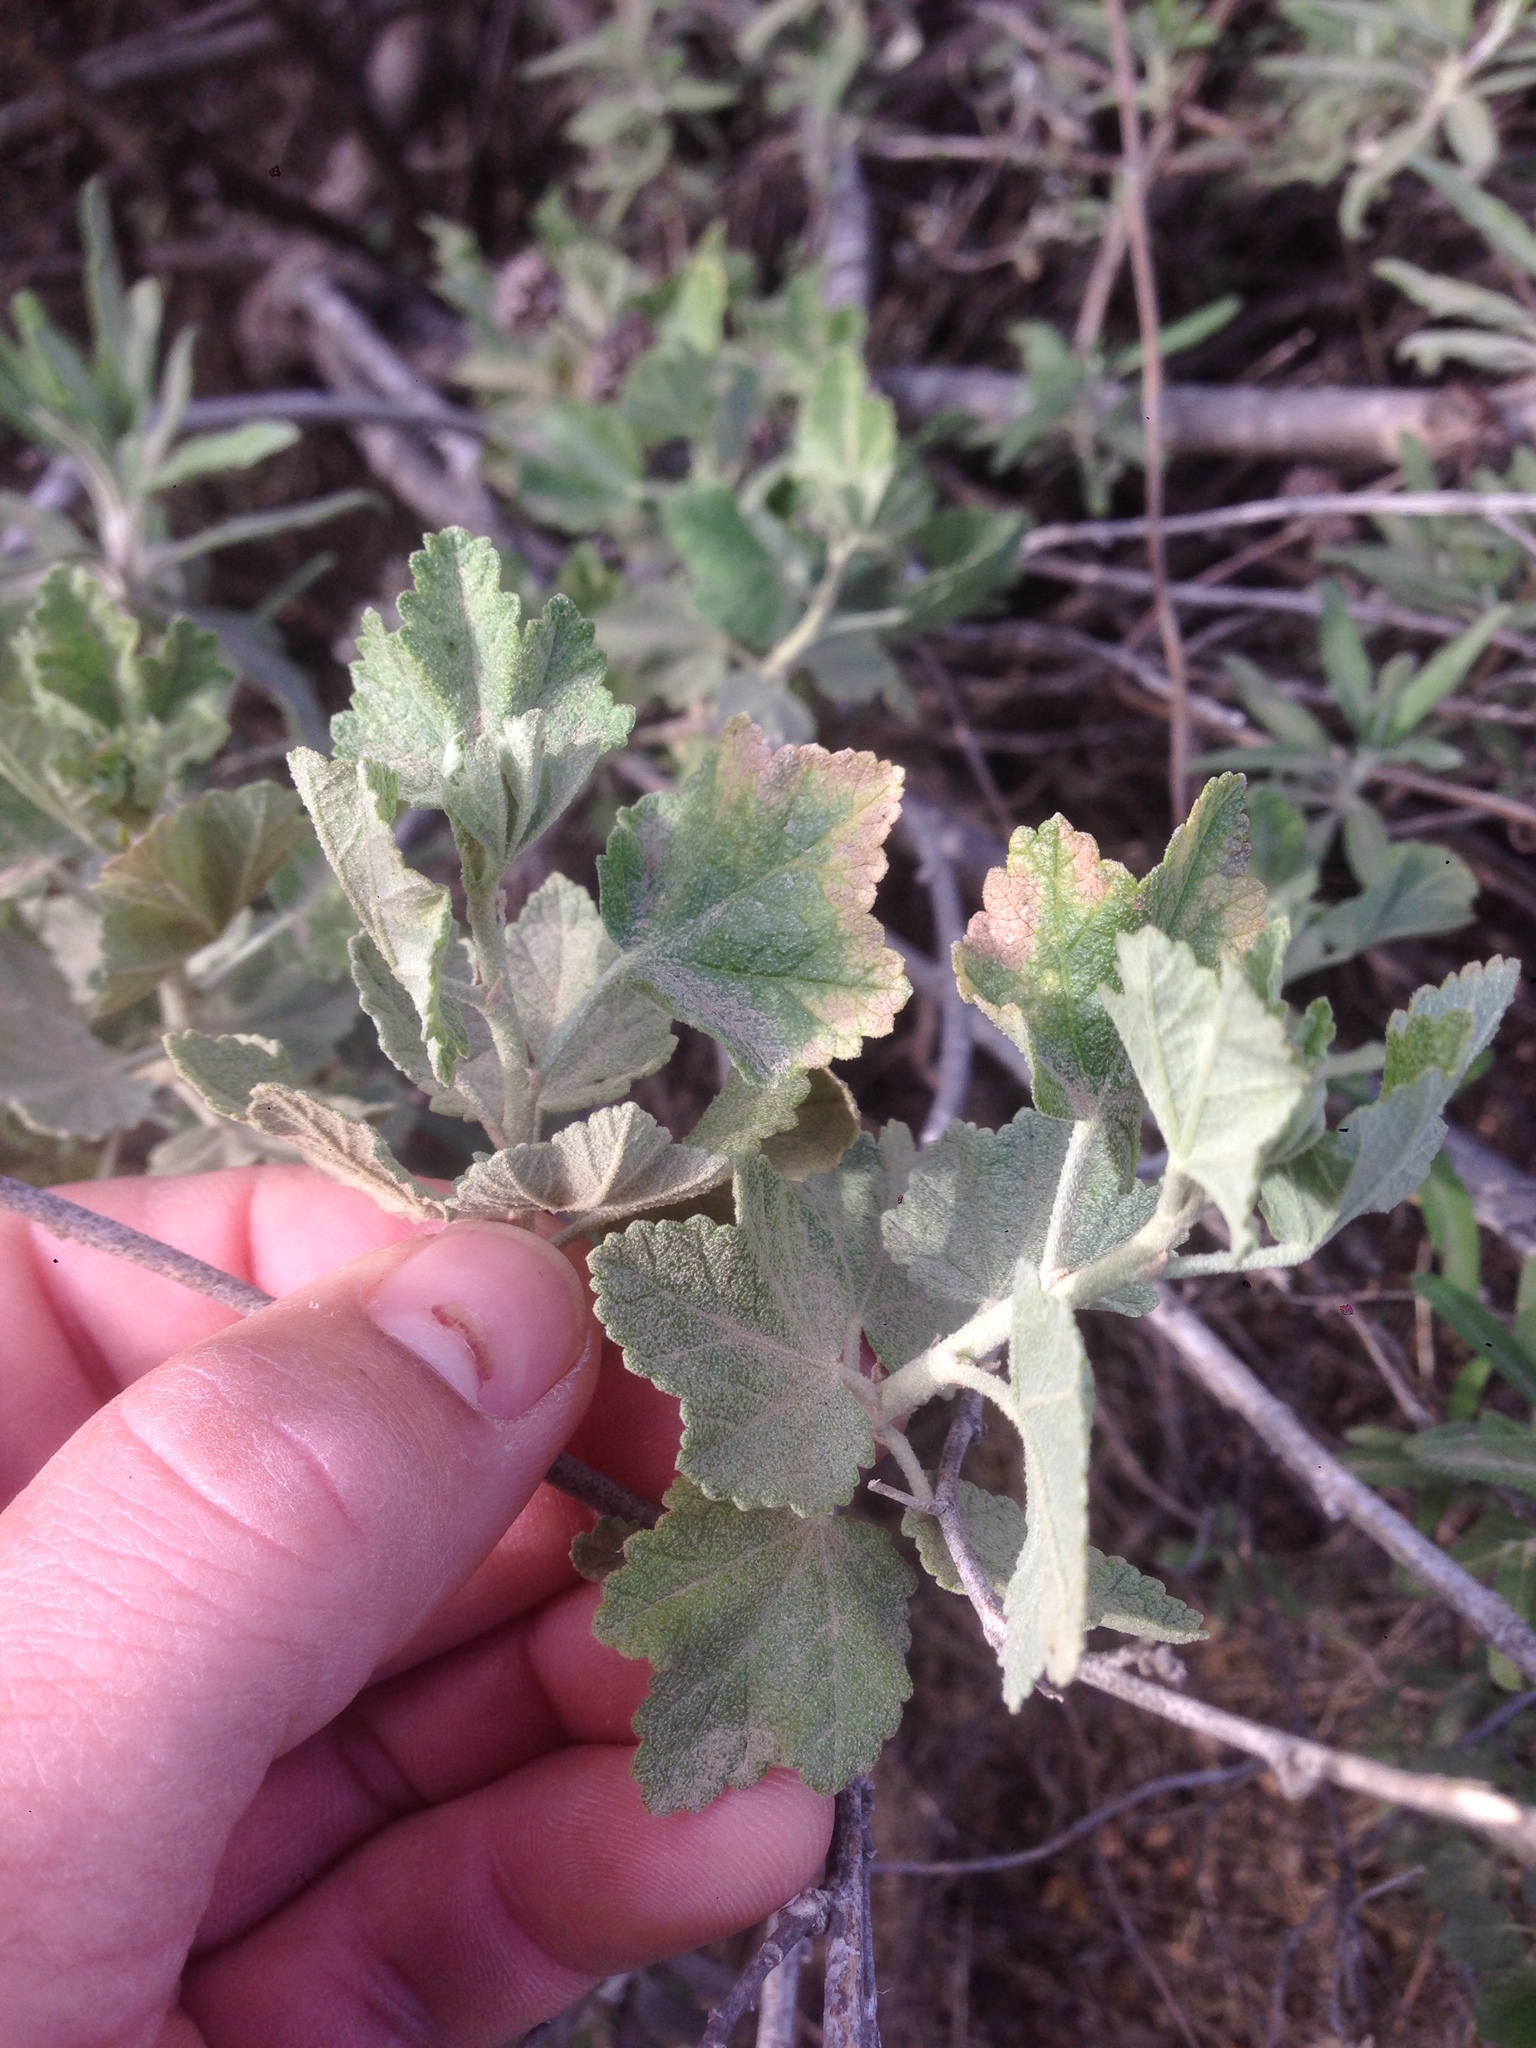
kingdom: Plantae
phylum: Tracheophyta
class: Magnoliopsida
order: Malvales
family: Malvaceae
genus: Malacothamnus
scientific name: Malacothamnus fasciculatus
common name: Sant cruz island bush-mallow
